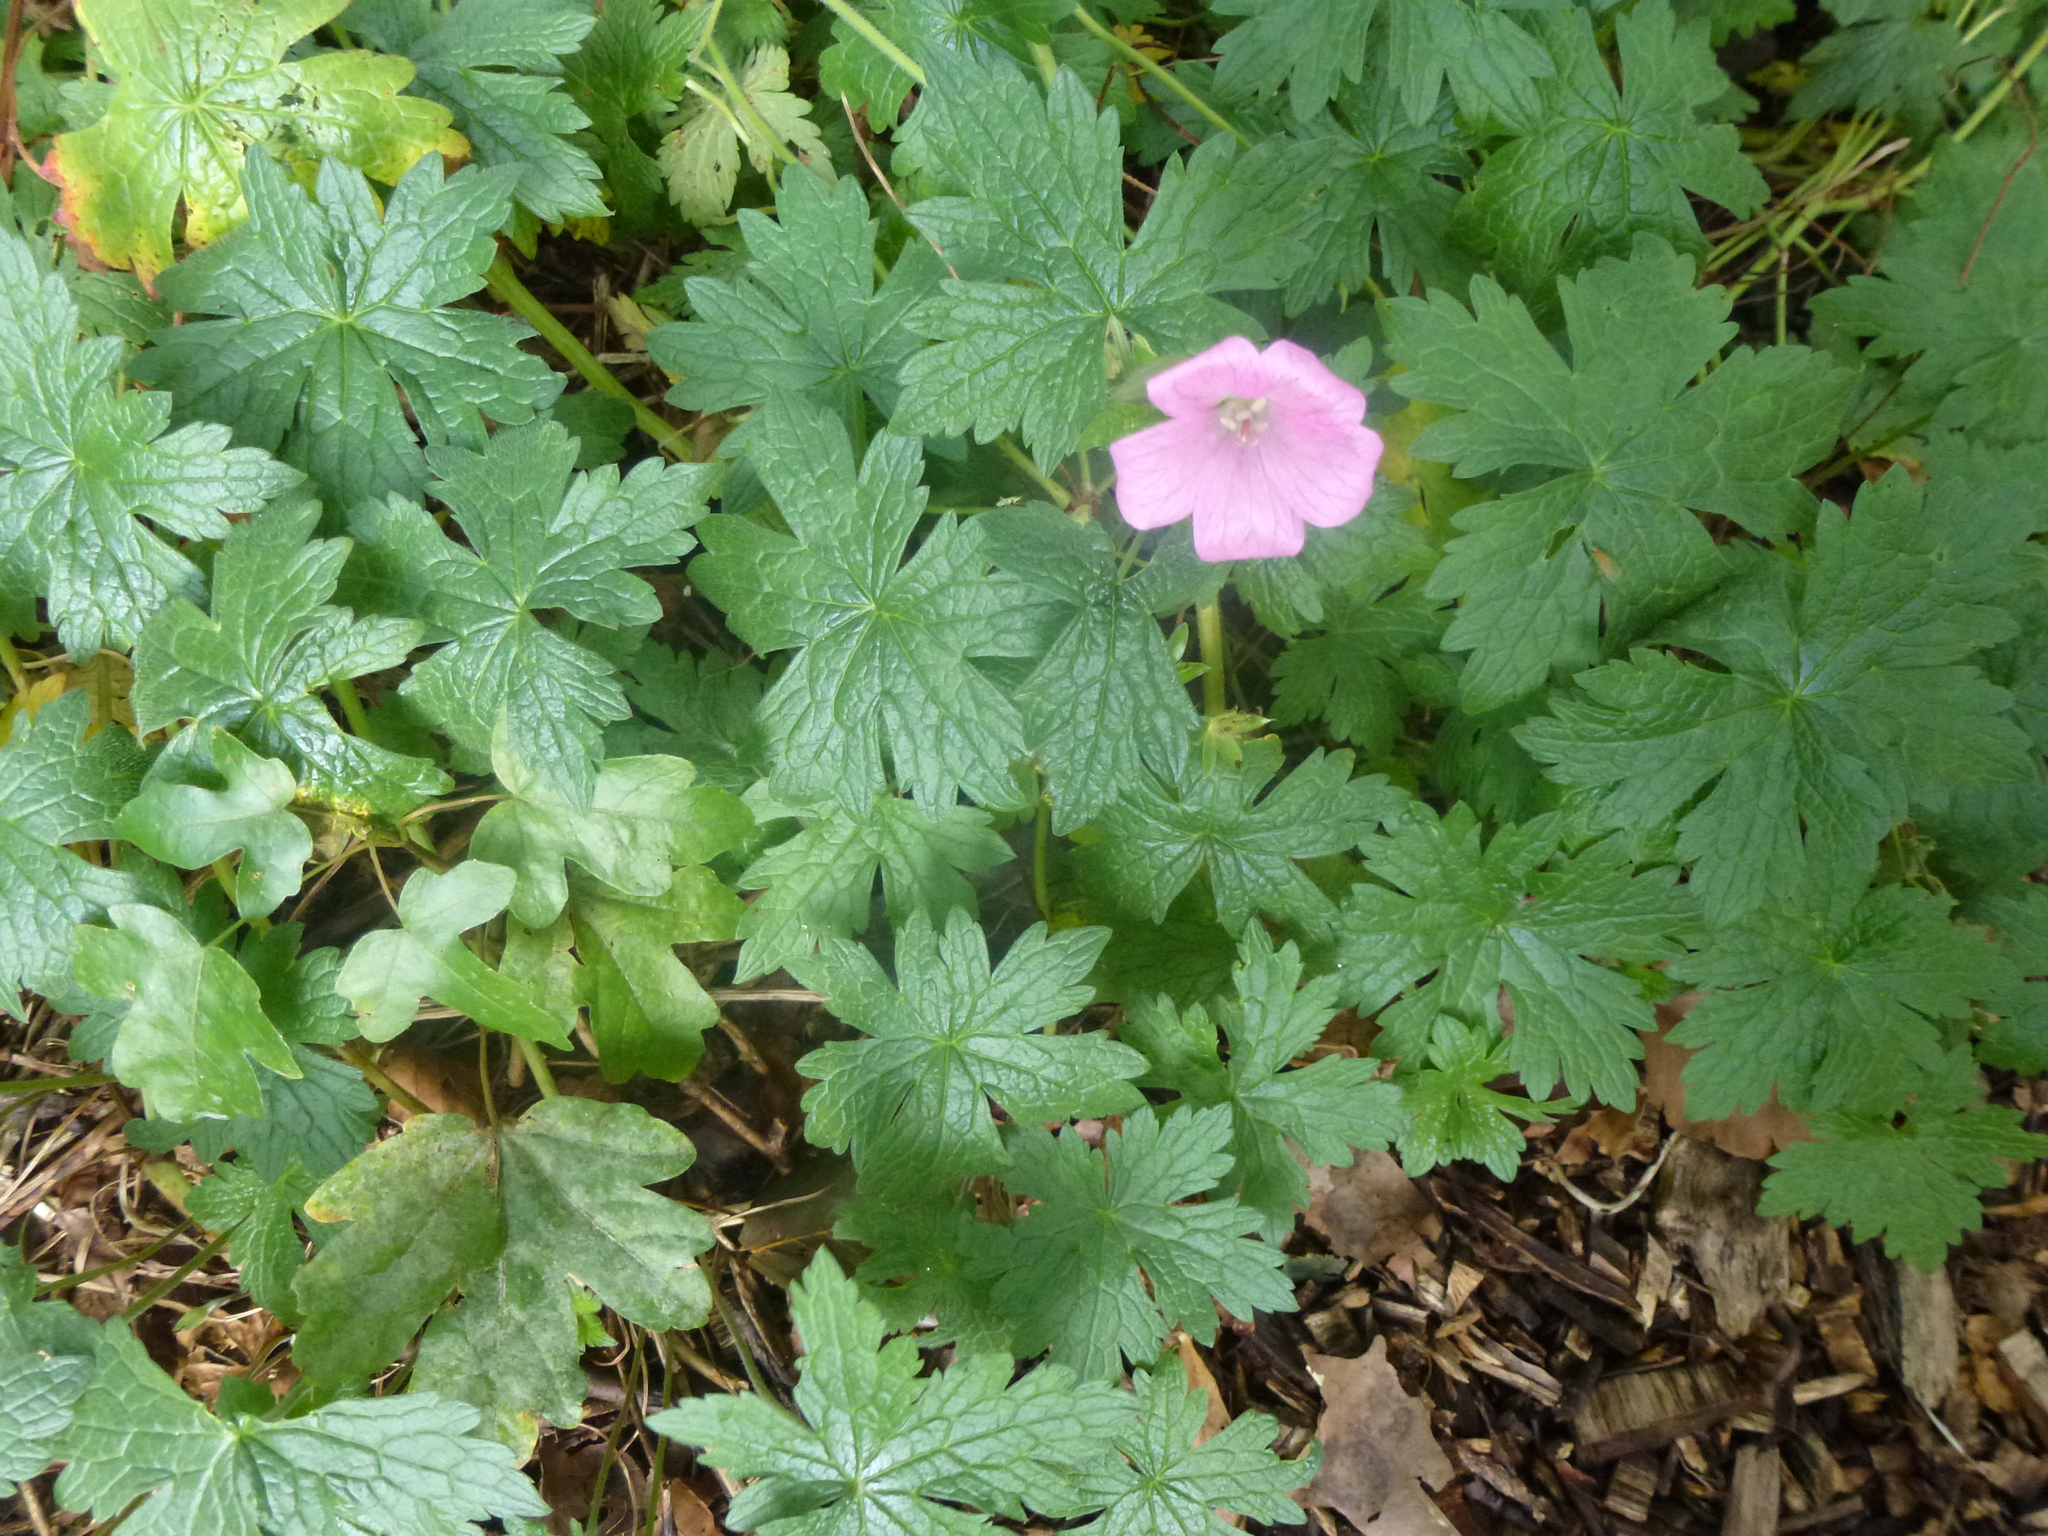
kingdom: Plantae
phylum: Tracheophyta
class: Magnoliopsida
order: Geraniales
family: Geraniaceae
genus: Geranium
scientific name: Geranium oxonianum
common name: Druce's crane's-bill
